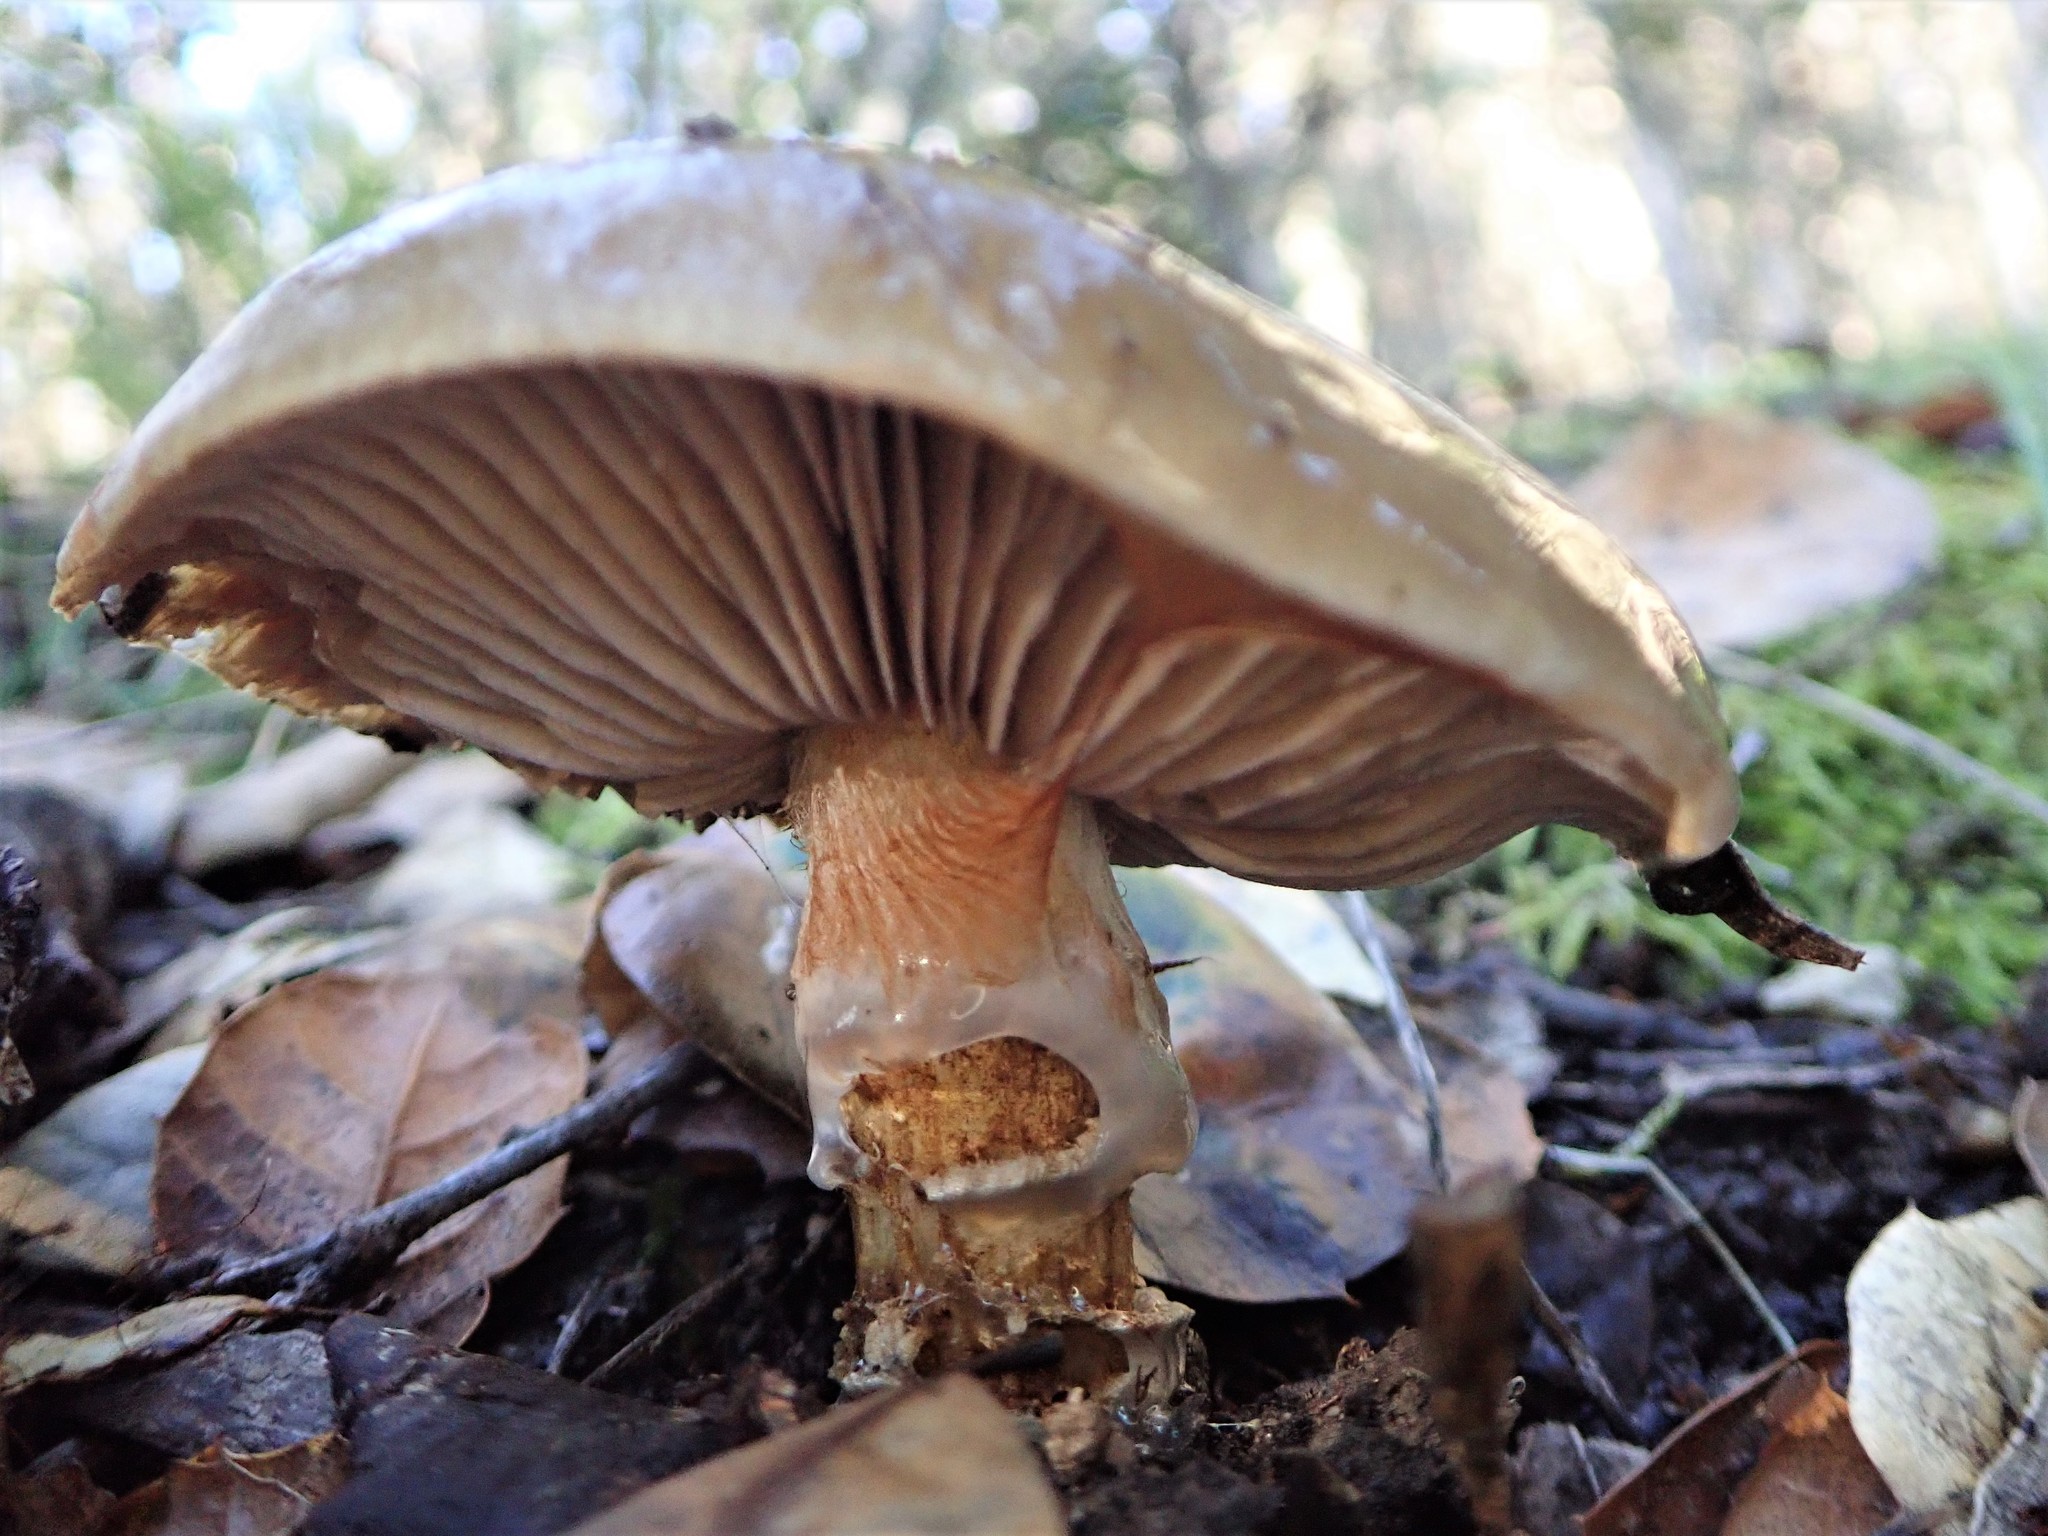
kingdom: Fungi
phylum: Basidiomycota
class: Agaricomycetes
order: Agaricales
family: Cortinariaceae
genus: Cortinarius
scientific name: Cortinarius glutinosoarmillatus
